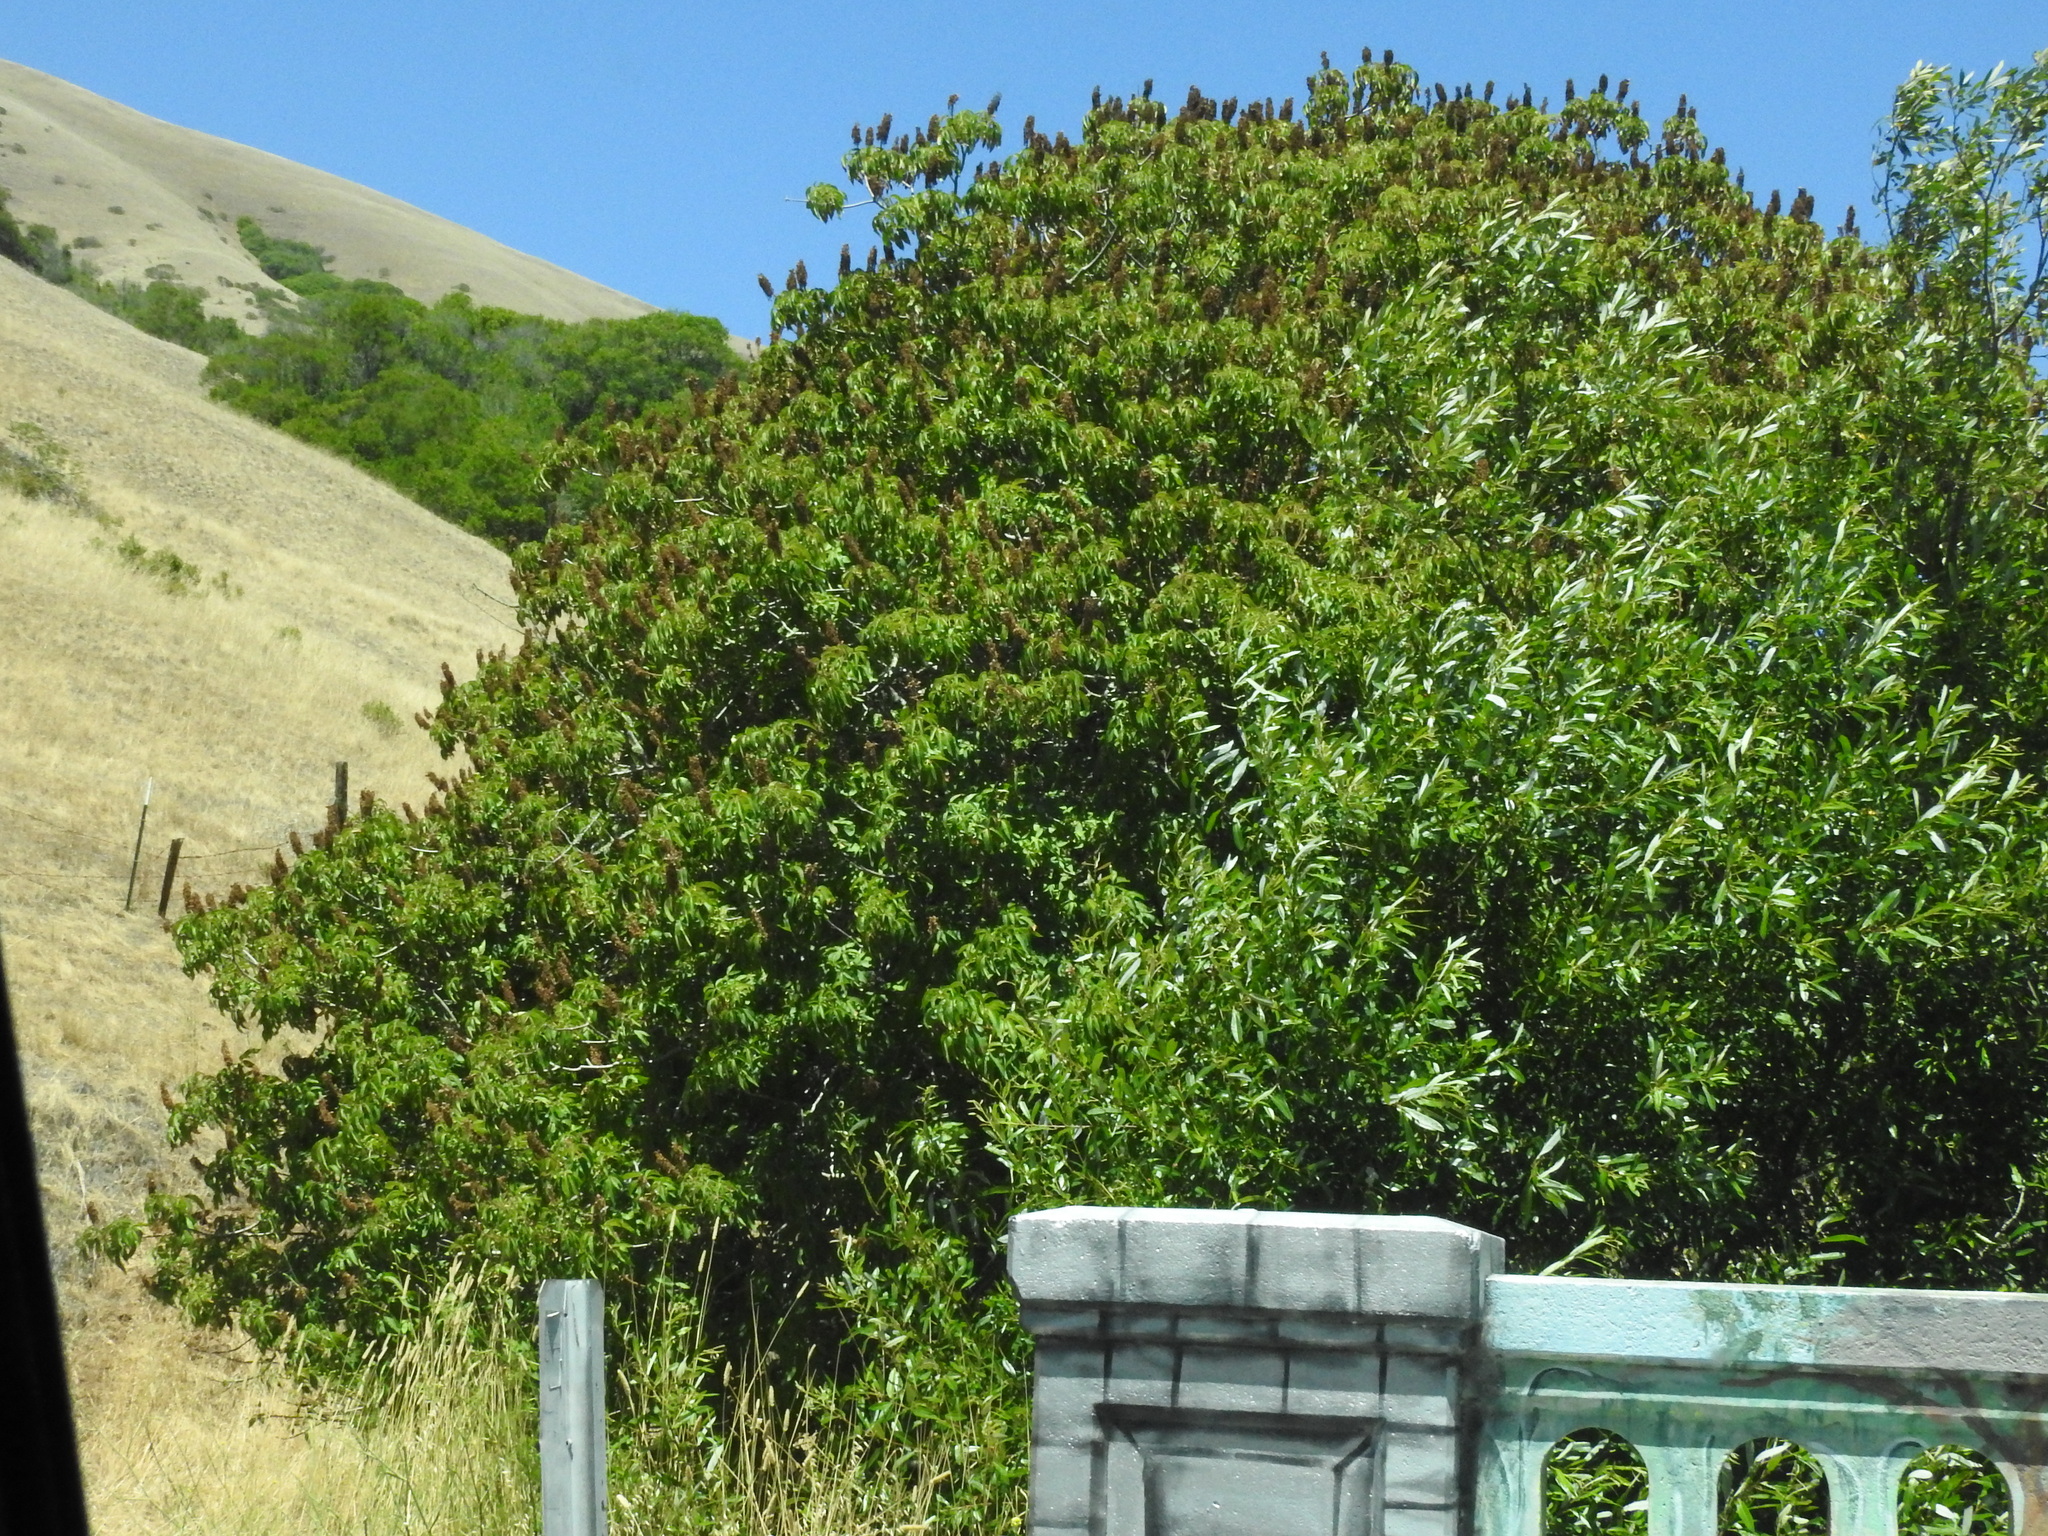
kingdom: Plantae
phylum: Tracheophyta
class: Magnoliopsida
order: Sapindales
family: Sapindaceae
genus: Aesculus
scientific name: Aesculus californica
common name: California buckeye
